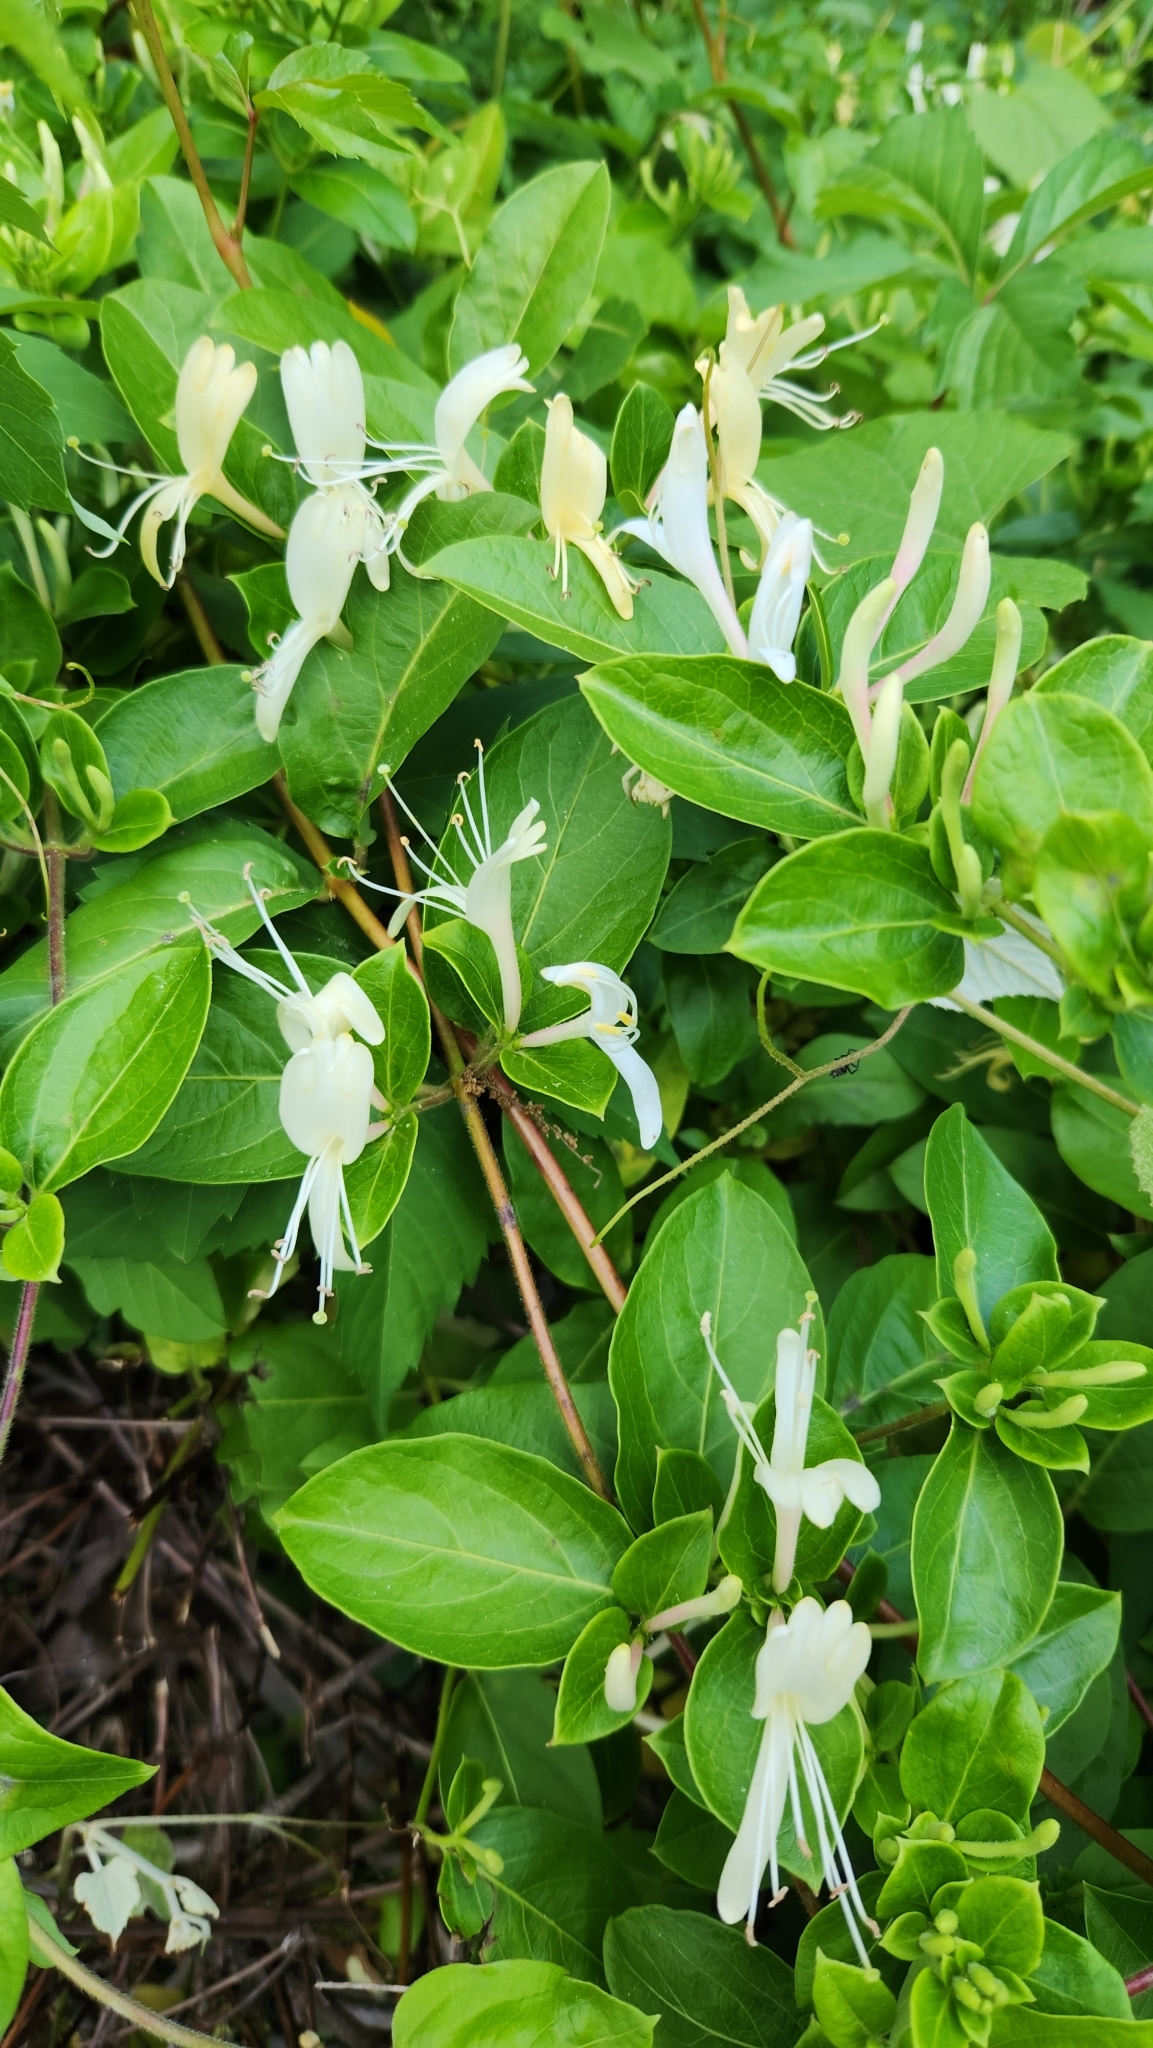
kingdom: Plantae
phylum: Tracheophyta
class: Magnoliopsida
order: Dipsacales
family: Caprifoliaceae
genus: Lonicera
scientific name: Lonicera japonica
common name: Japanese honeysuckle
